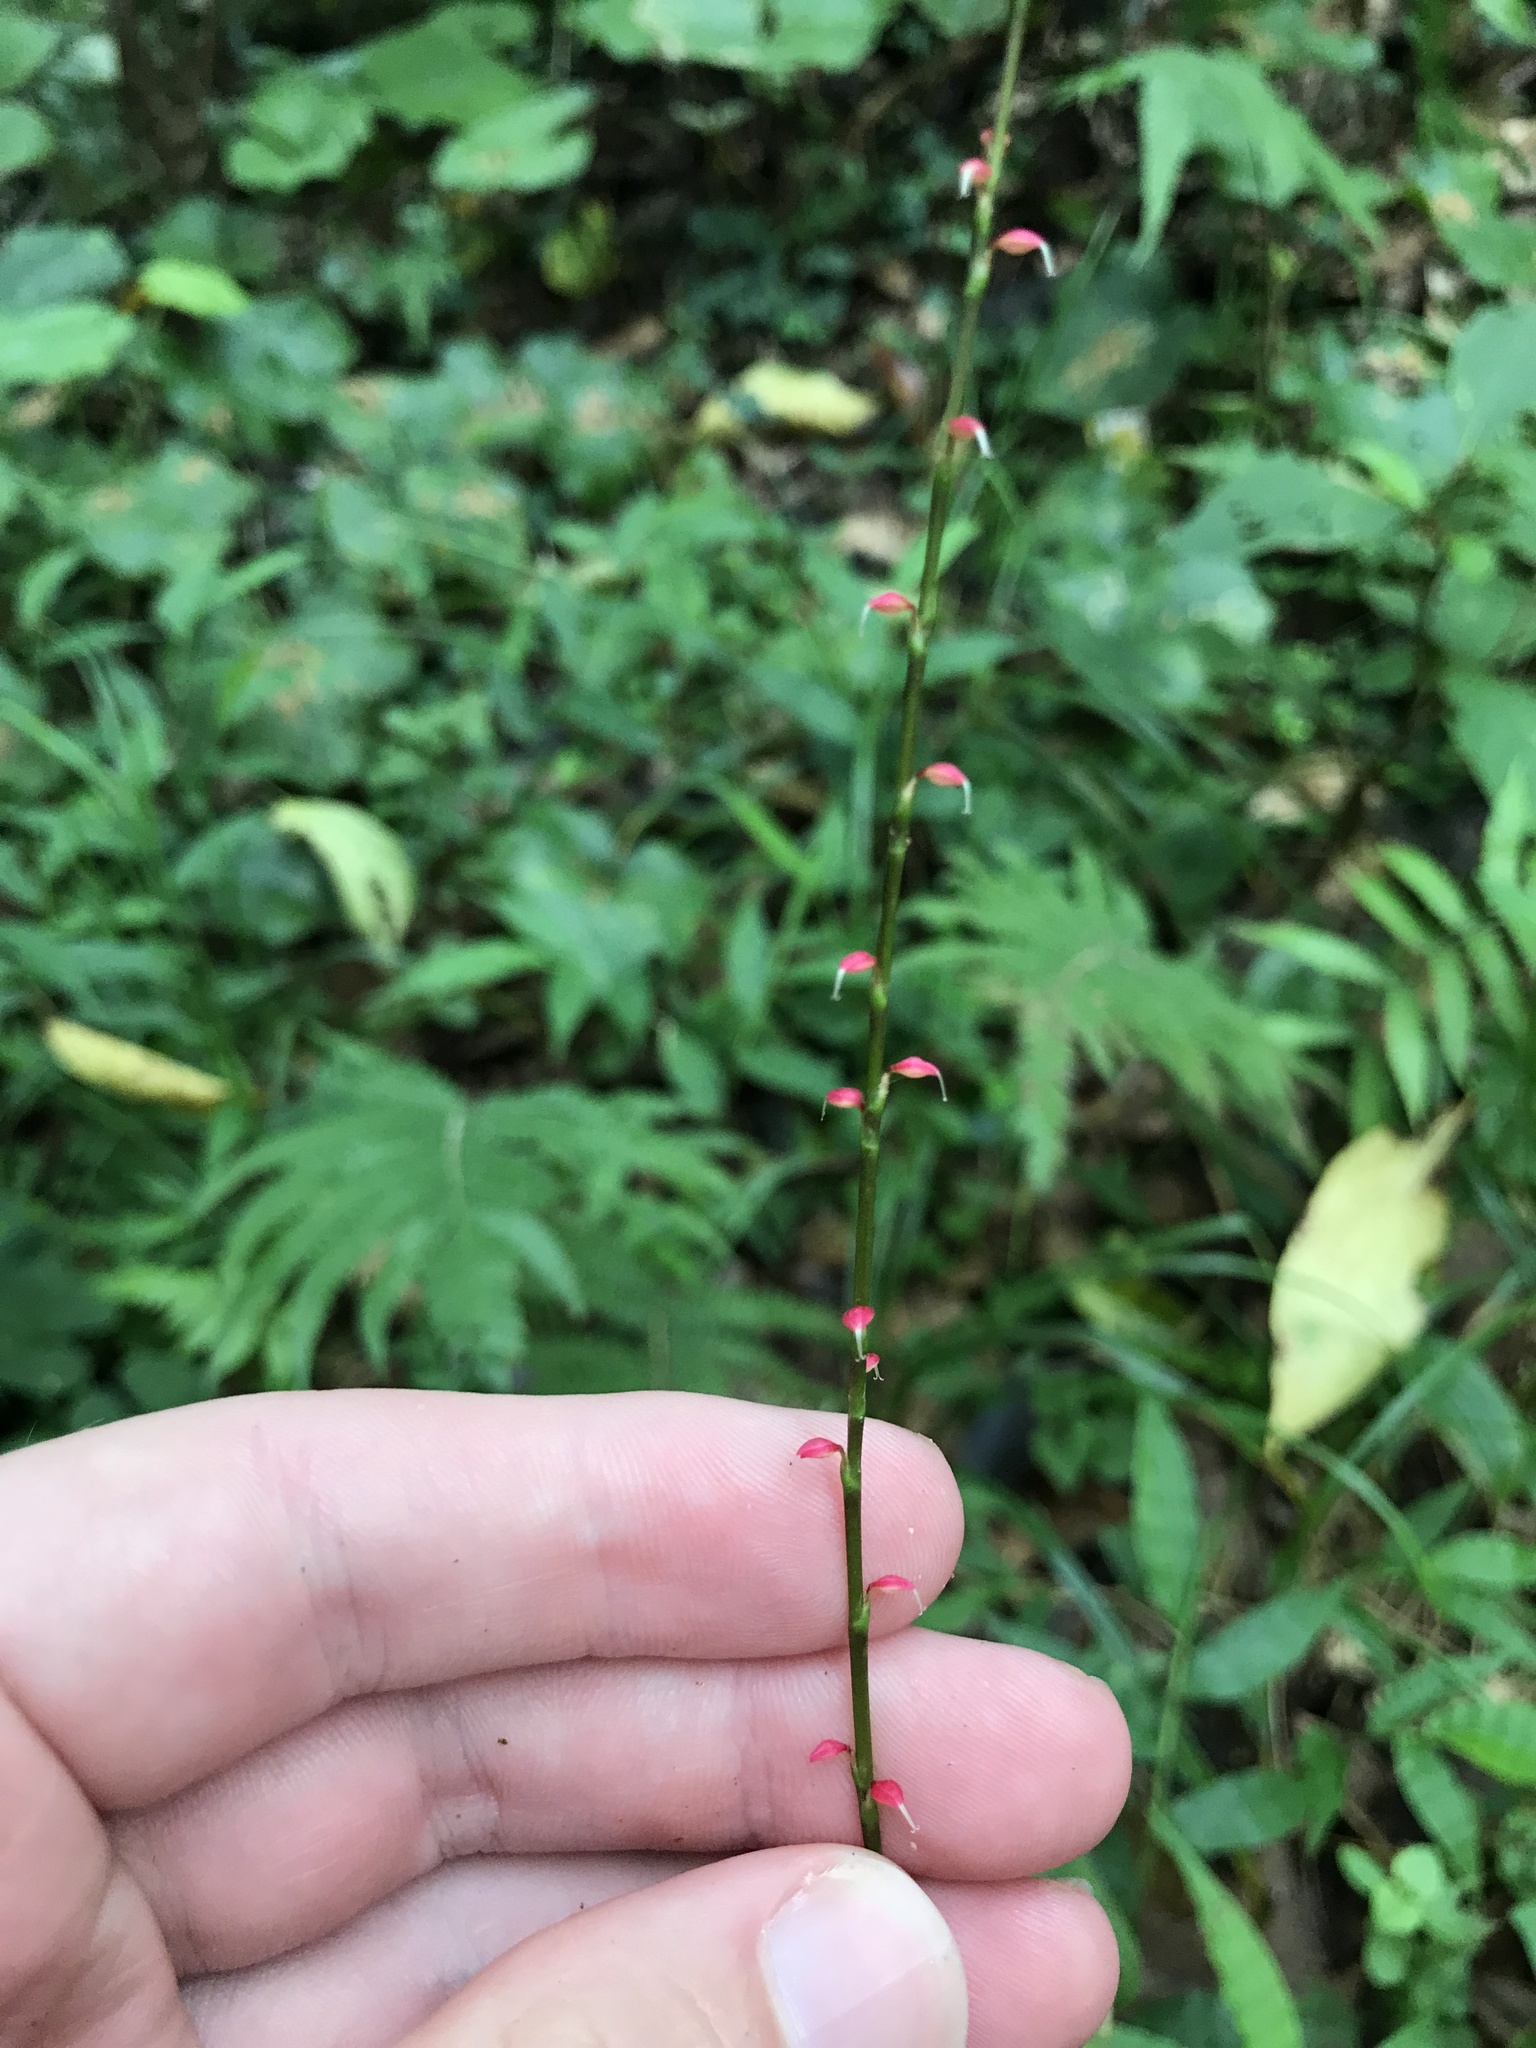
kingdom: Plantae
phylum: Tracheophyta
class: Magnoliopsida
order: Caryophyllales
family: Polygonaceae
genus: Persicaria
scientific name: Persicaria filiformis
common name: Asian jumpseed
